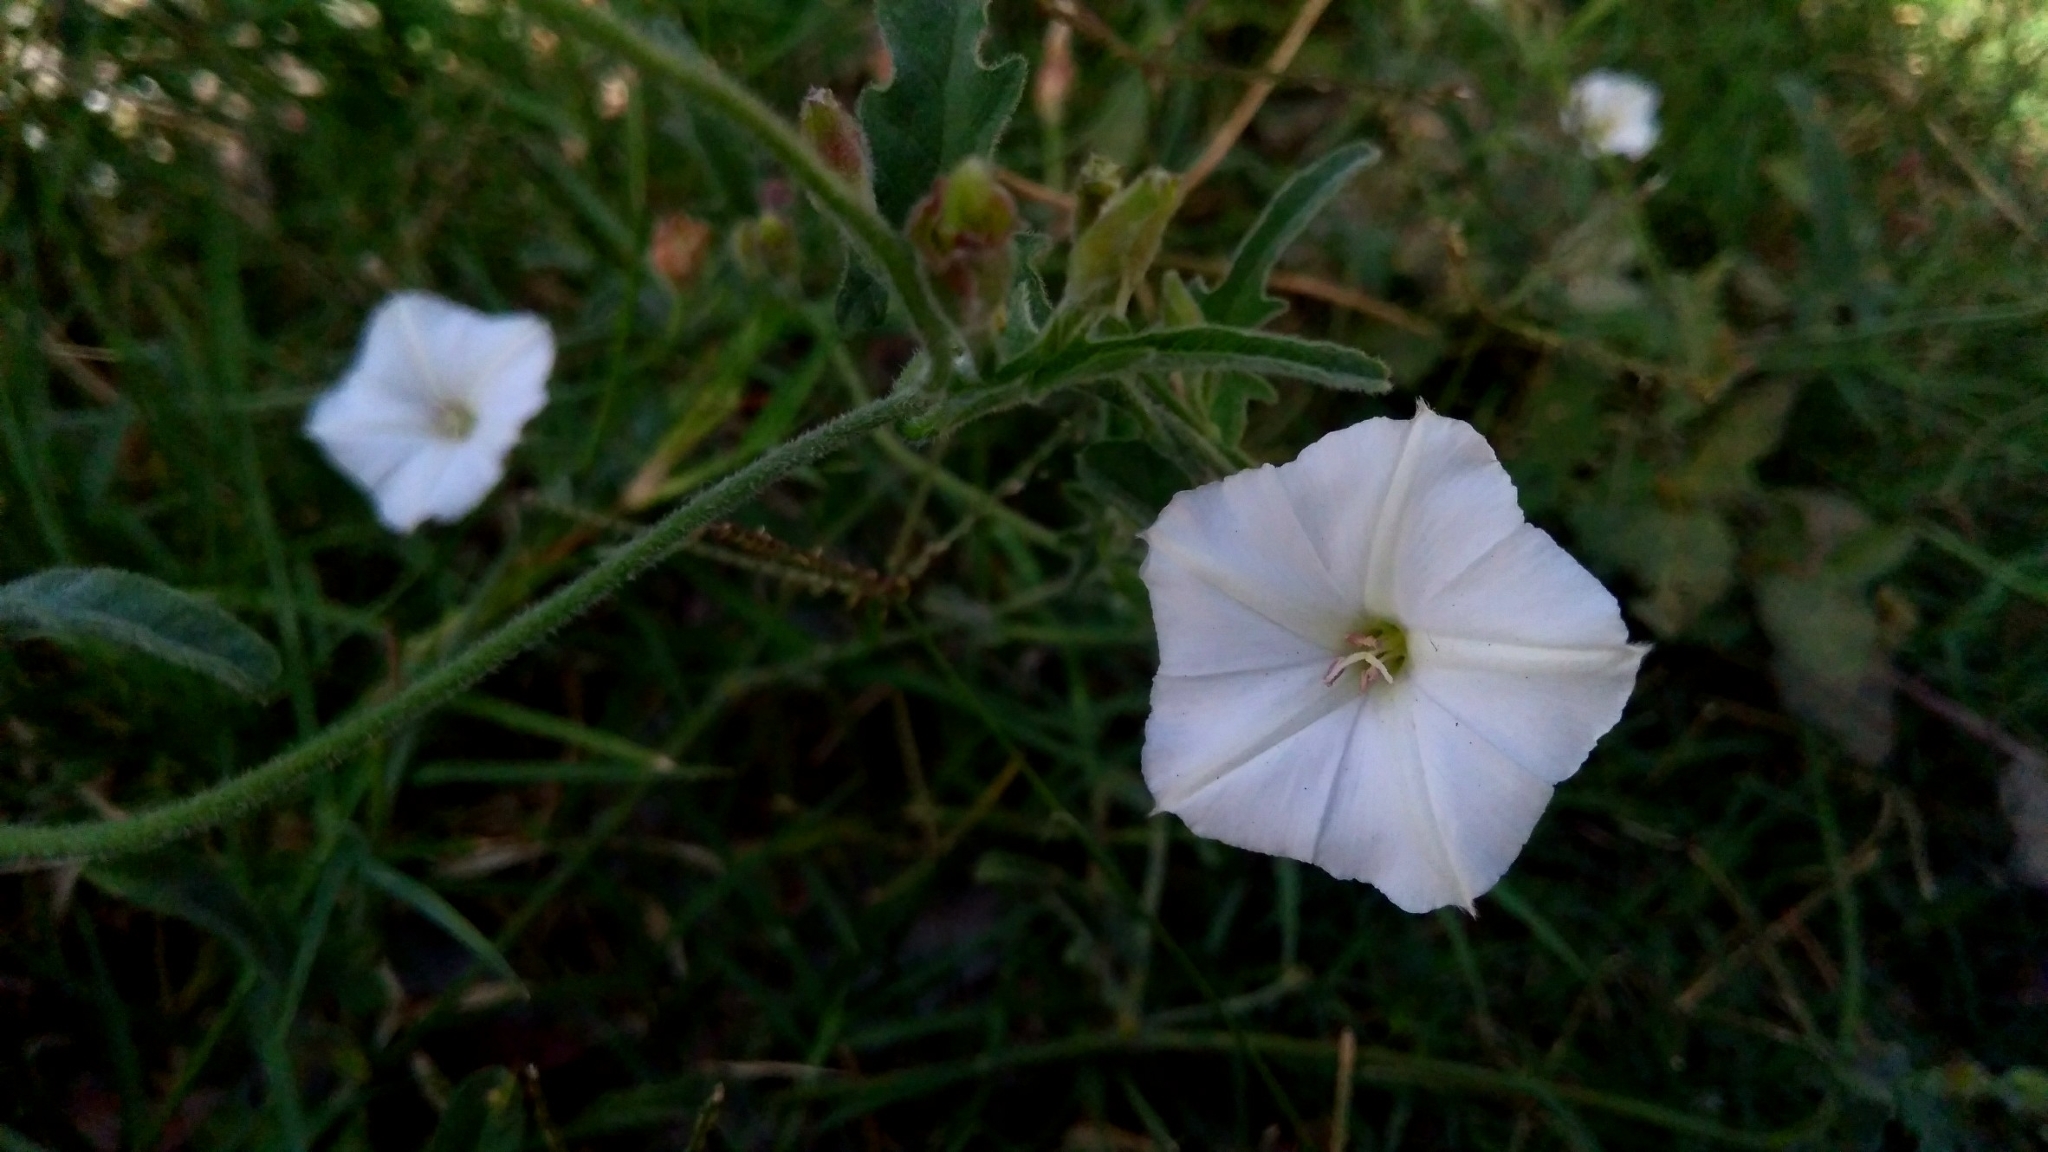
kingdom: Plantae
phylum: Tracheophyta
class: Magnoliopsida
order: Solanales
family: Convolvulaceae
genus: Convolvulus
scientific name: Convolvulus equitans
